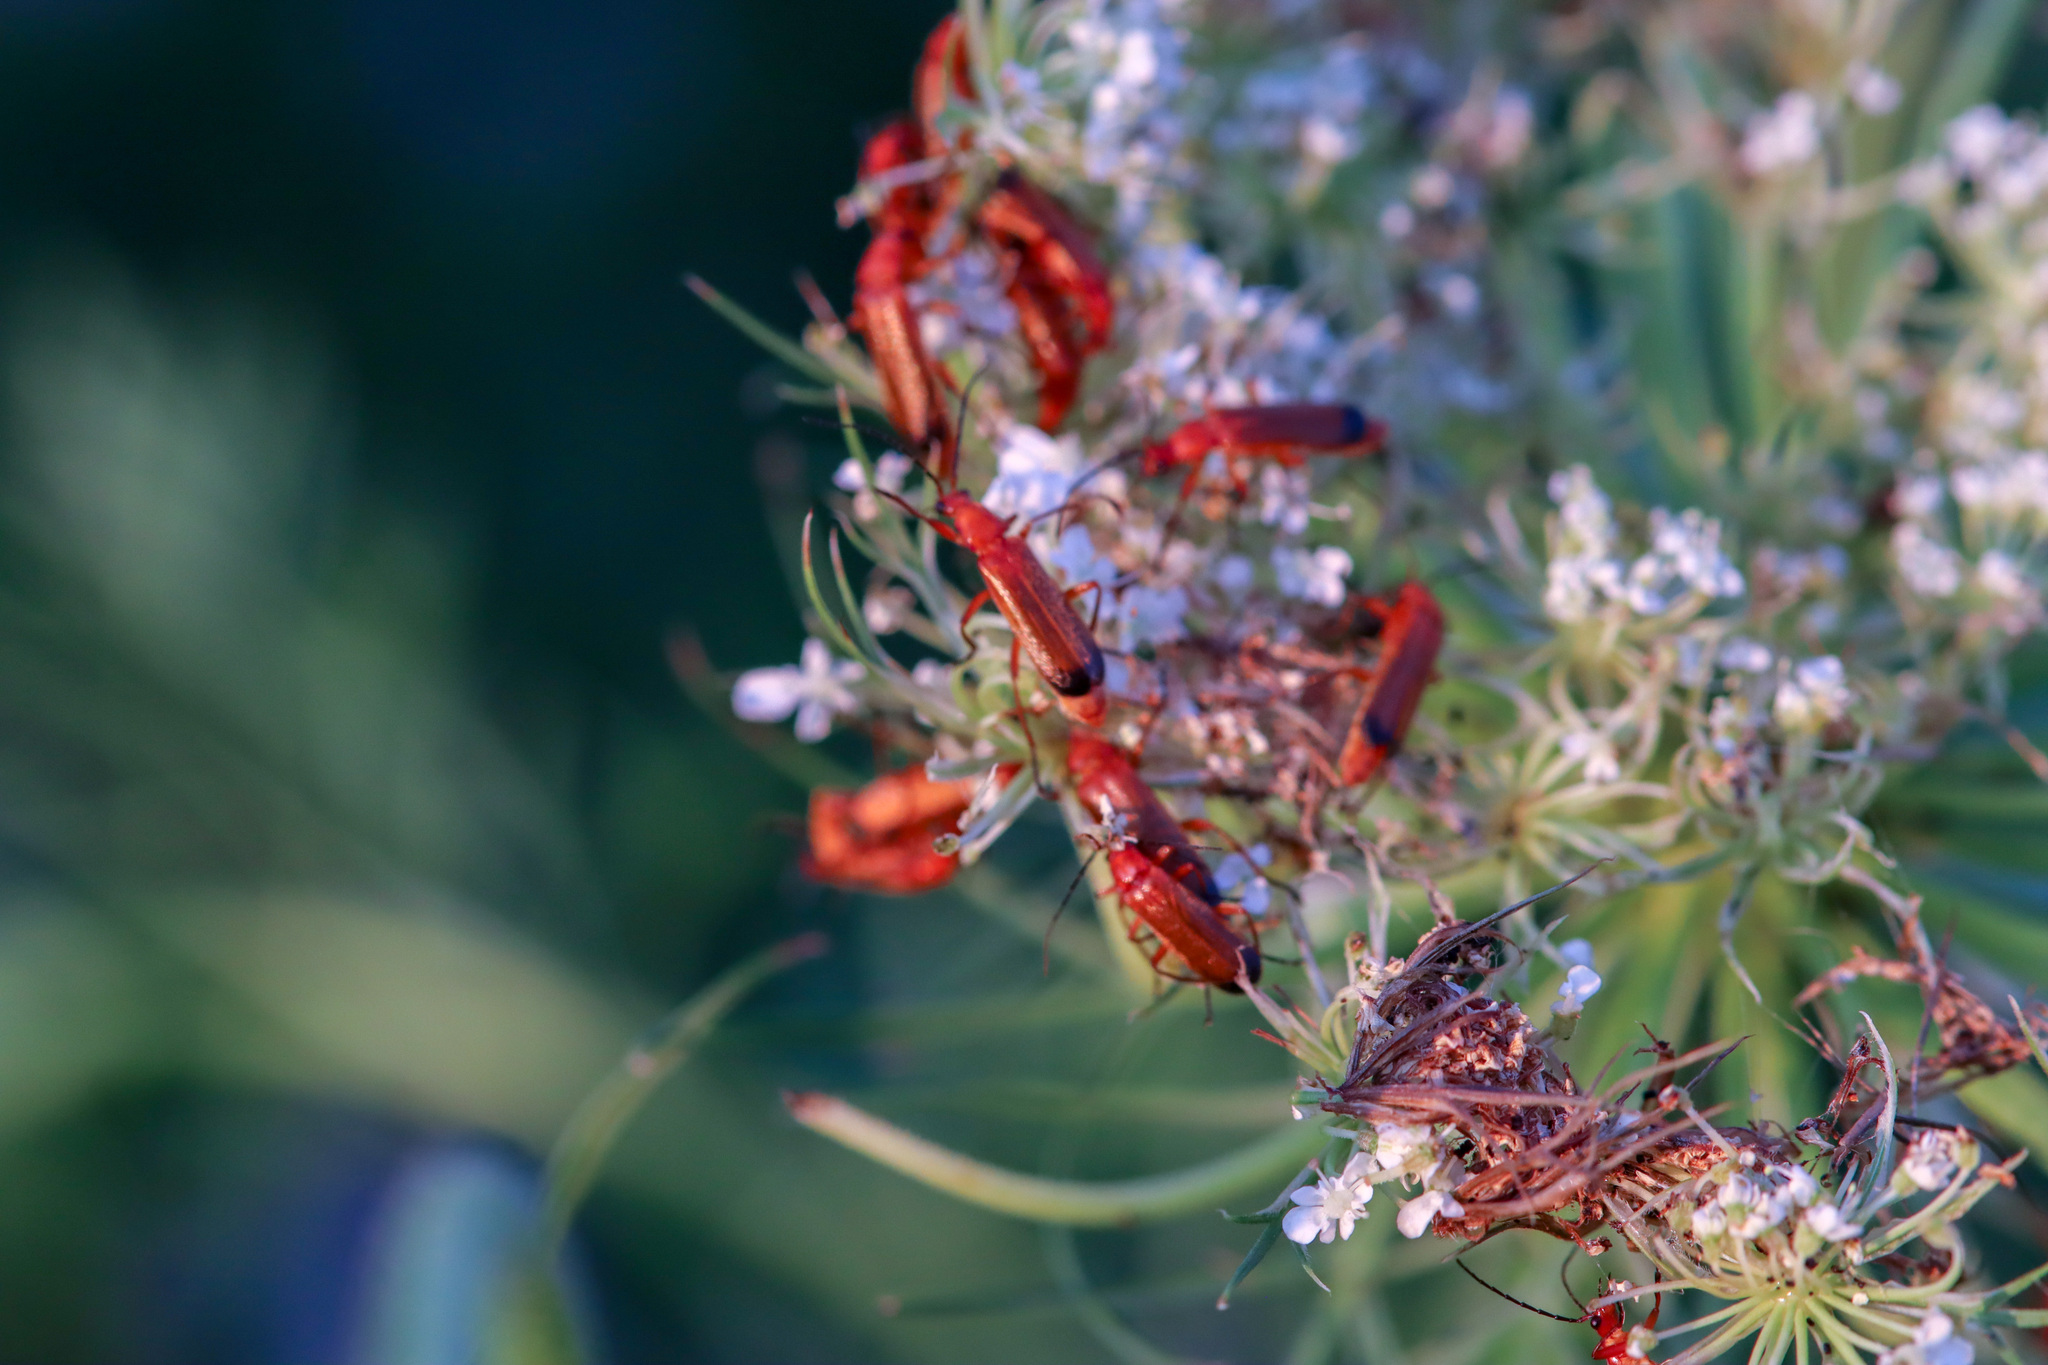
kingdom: Animalia
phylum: Arthropoda
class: Insecta
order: Coleoptera
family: Cantharidae
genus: Rhagonycha
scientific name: Rhagonycha fulva
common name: Common red soldier beetle
